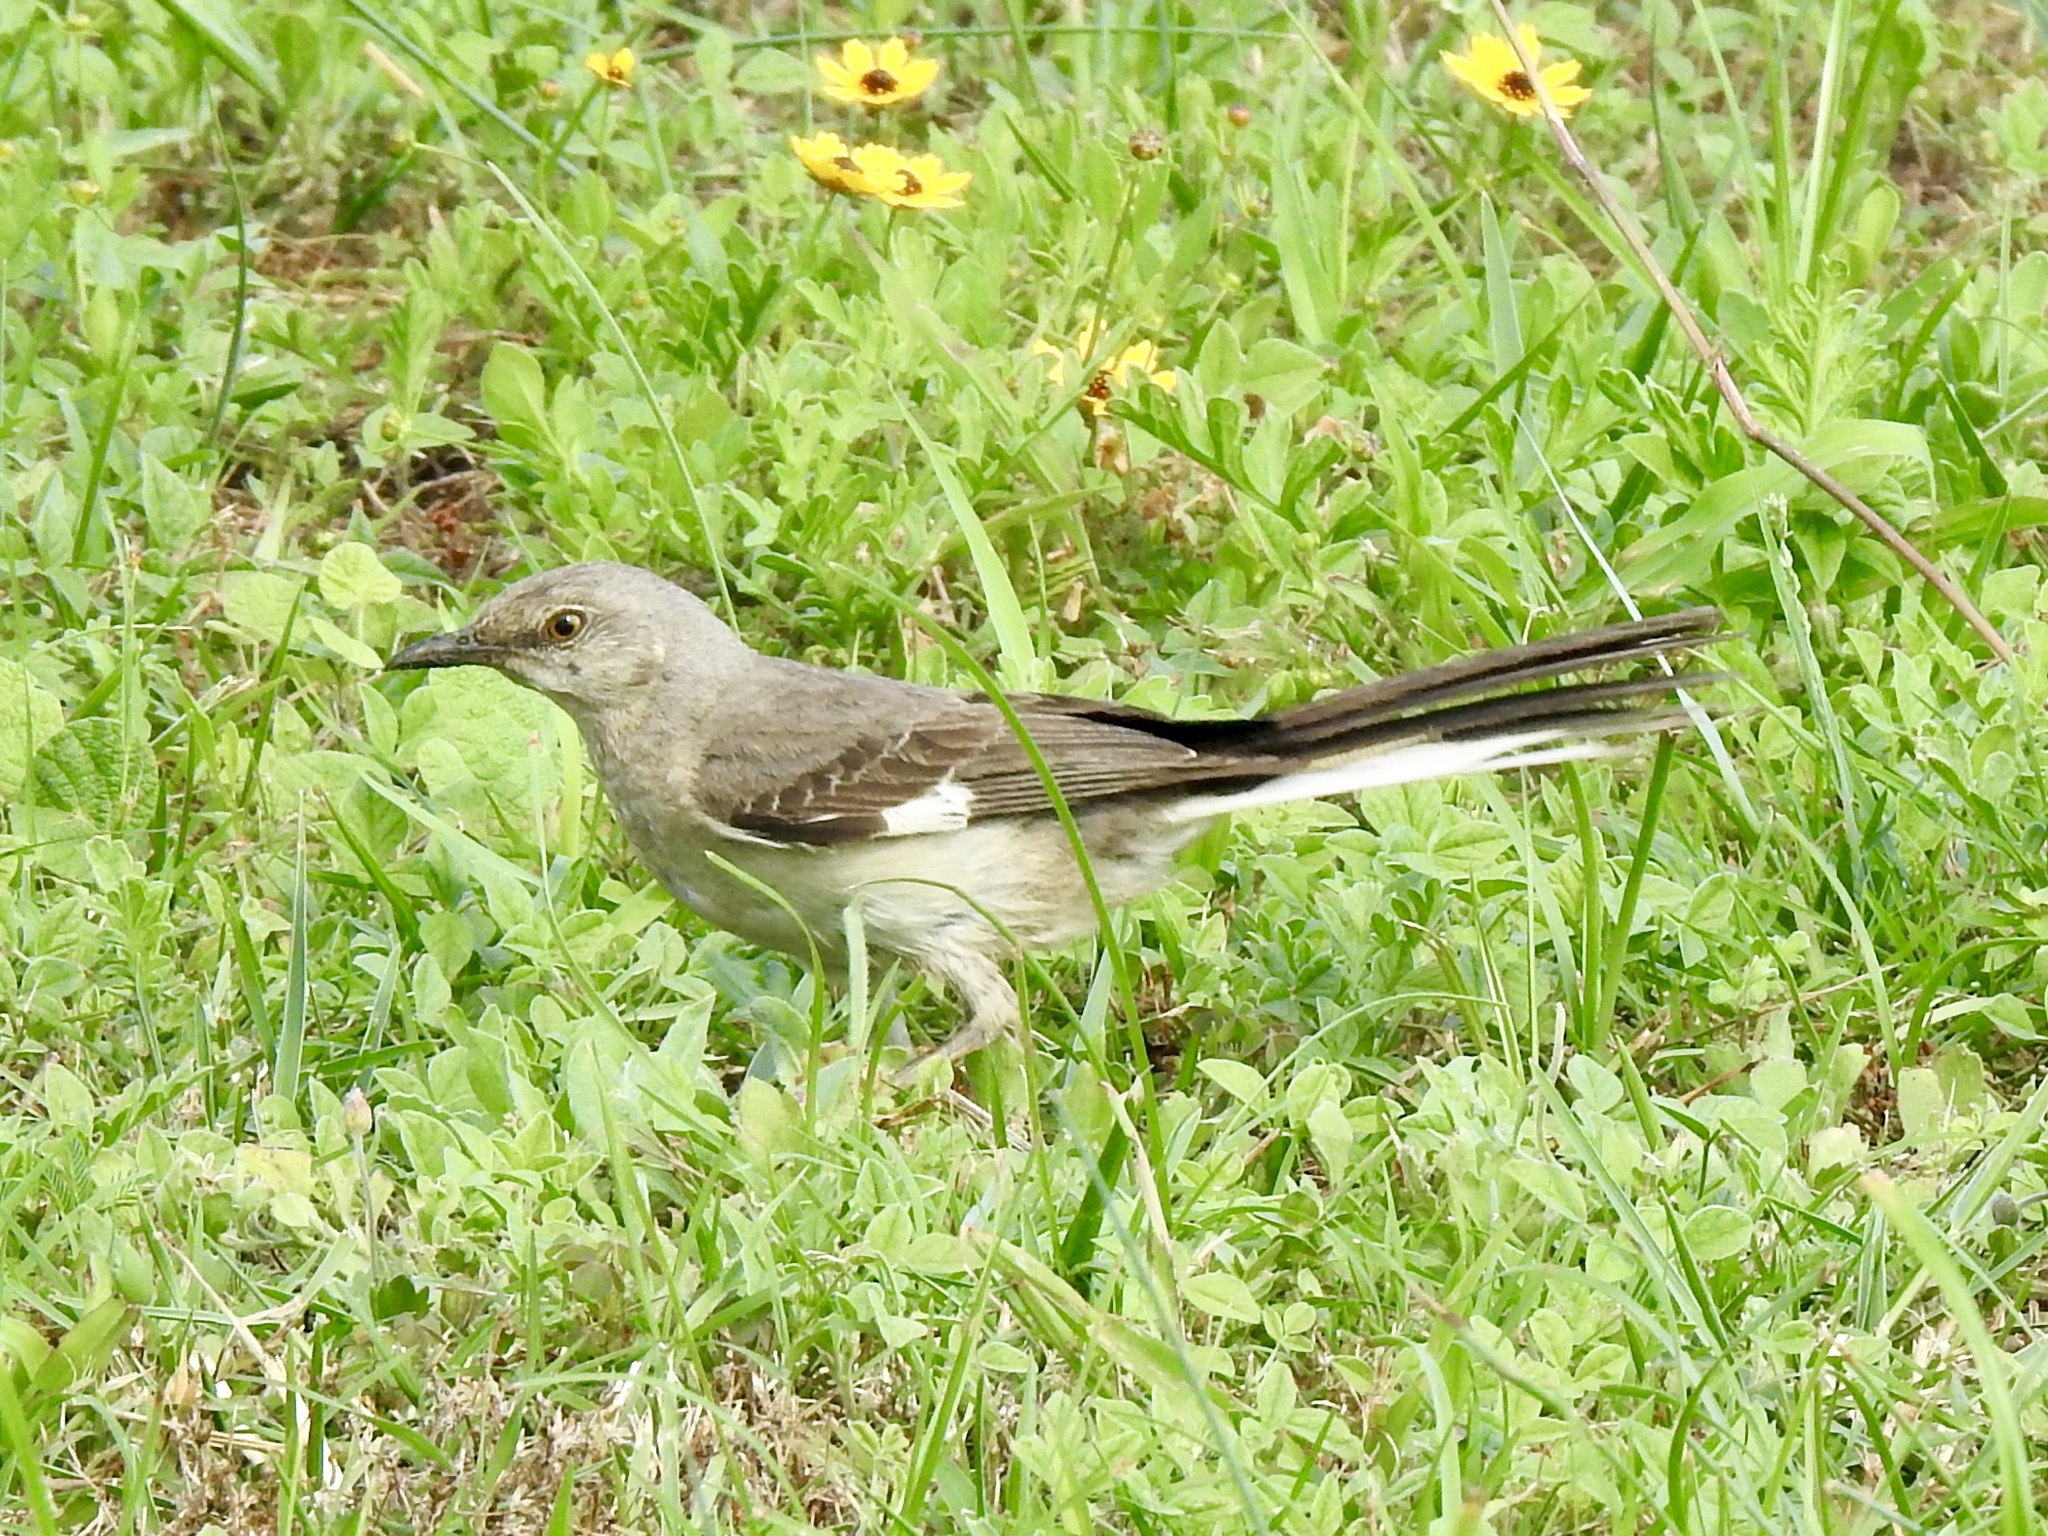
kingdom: Animalia
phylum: Chordata
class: Aves
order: Passeriformes
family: Mimidae
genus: Mimus
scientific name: Mimus polyglottos
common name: Northern mockingbird
